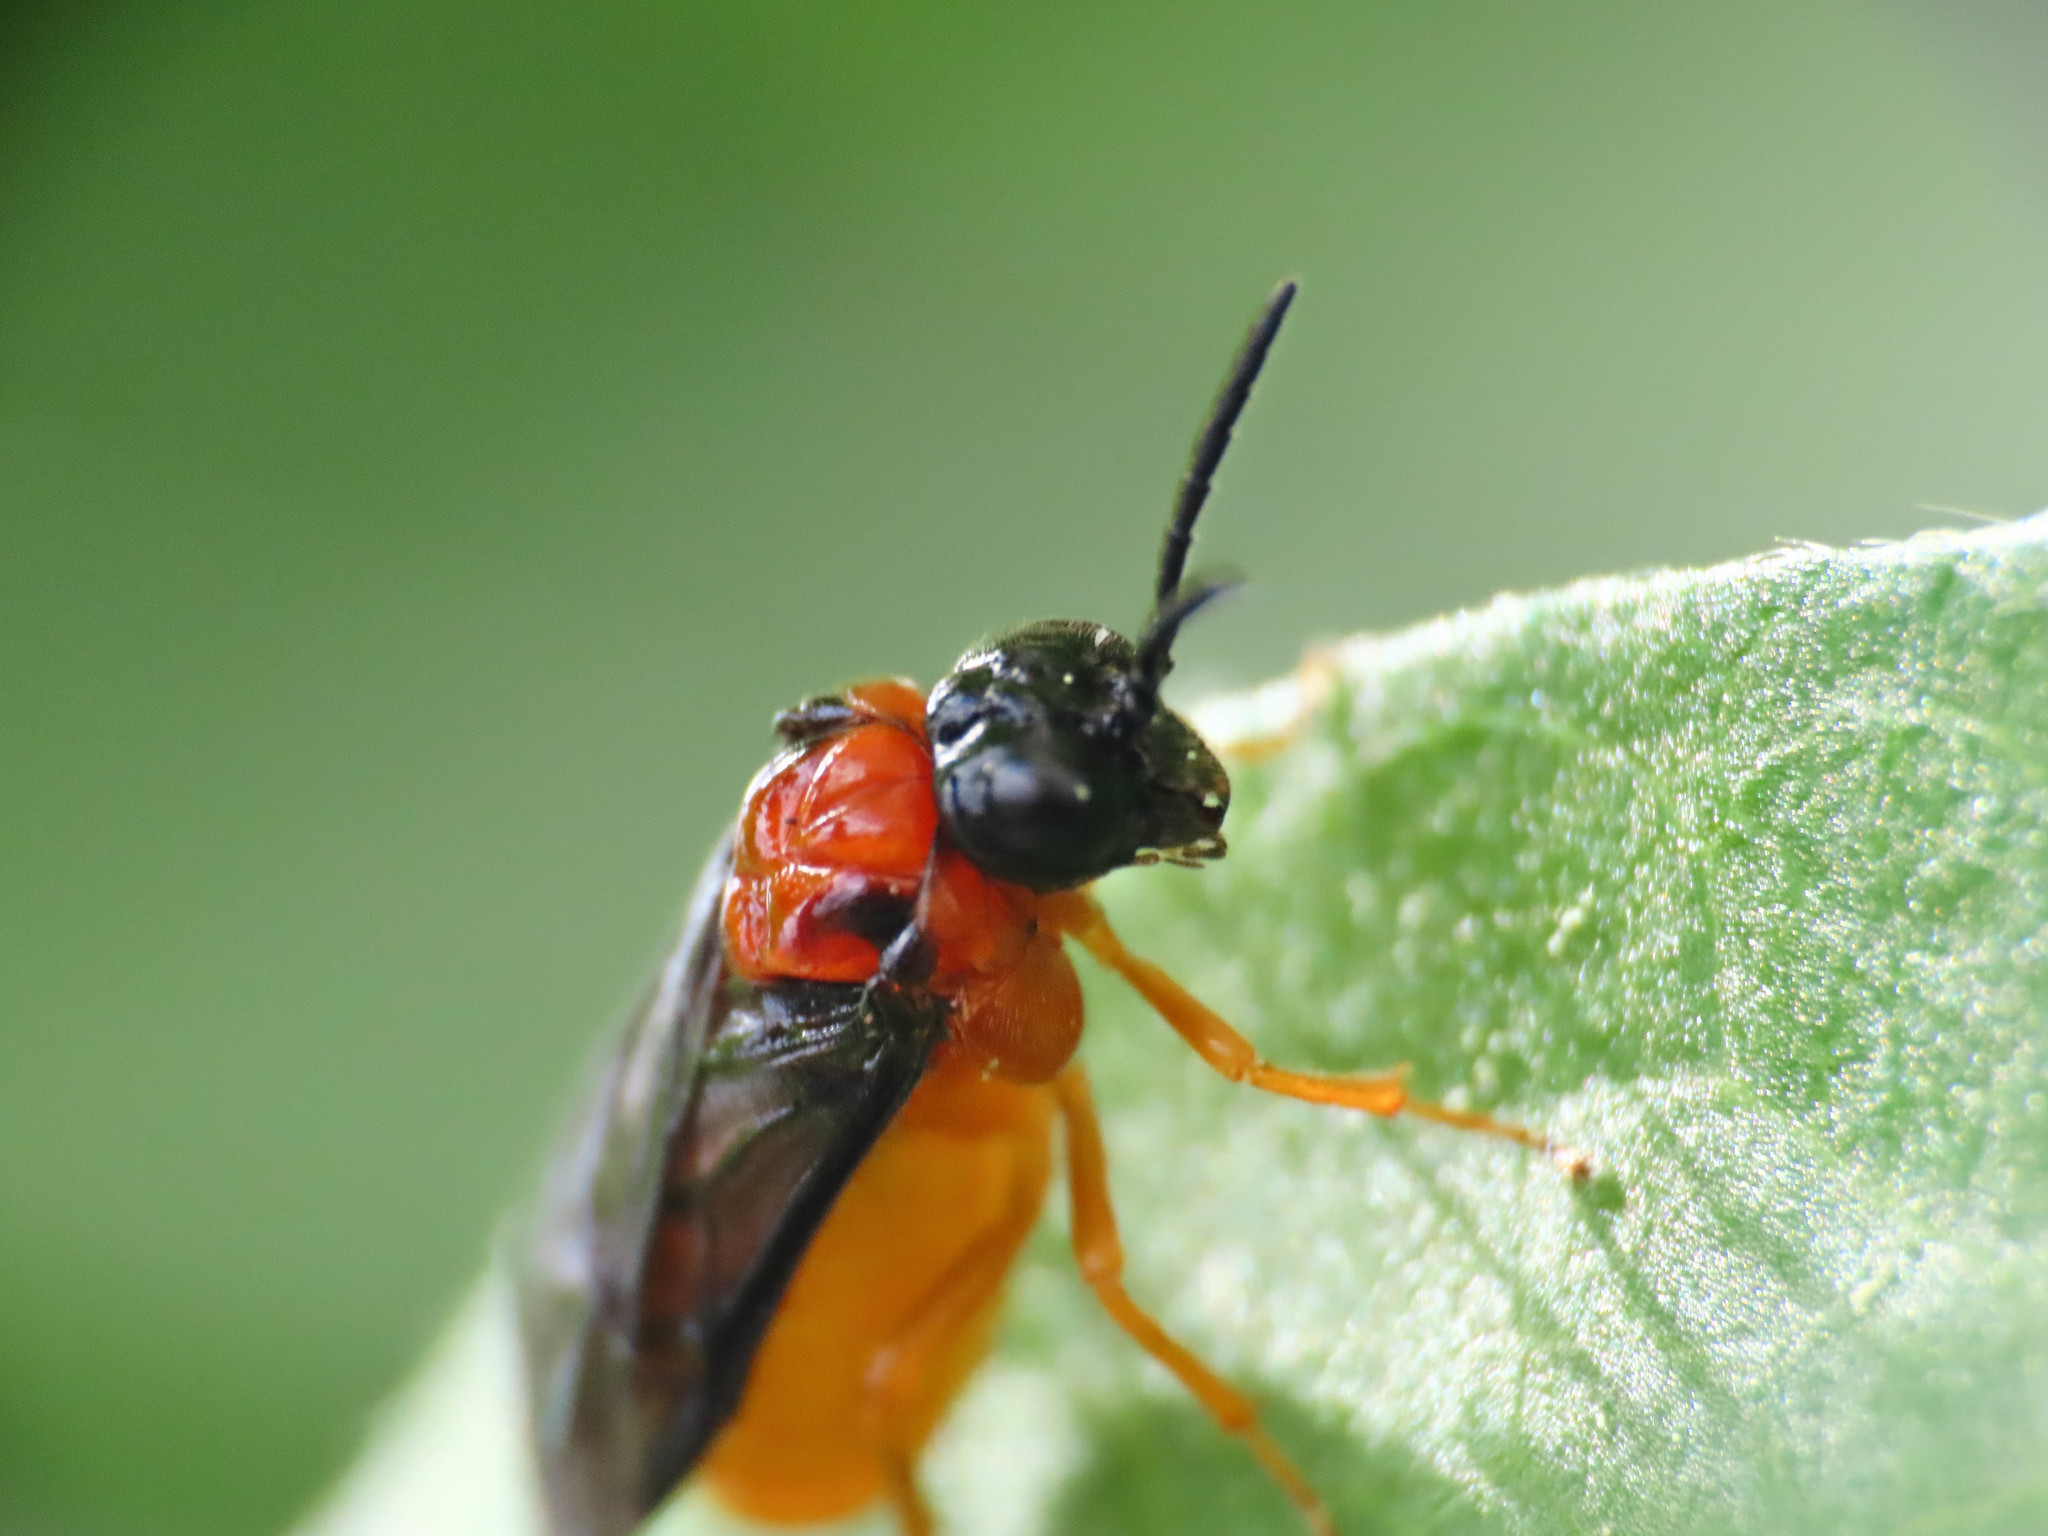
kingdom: Animalia
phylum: Arthropoda
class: Insecta
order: Hymenoptera
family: Tenthredinidae
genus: Monophadnus
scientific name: Monophadnus spinolae
